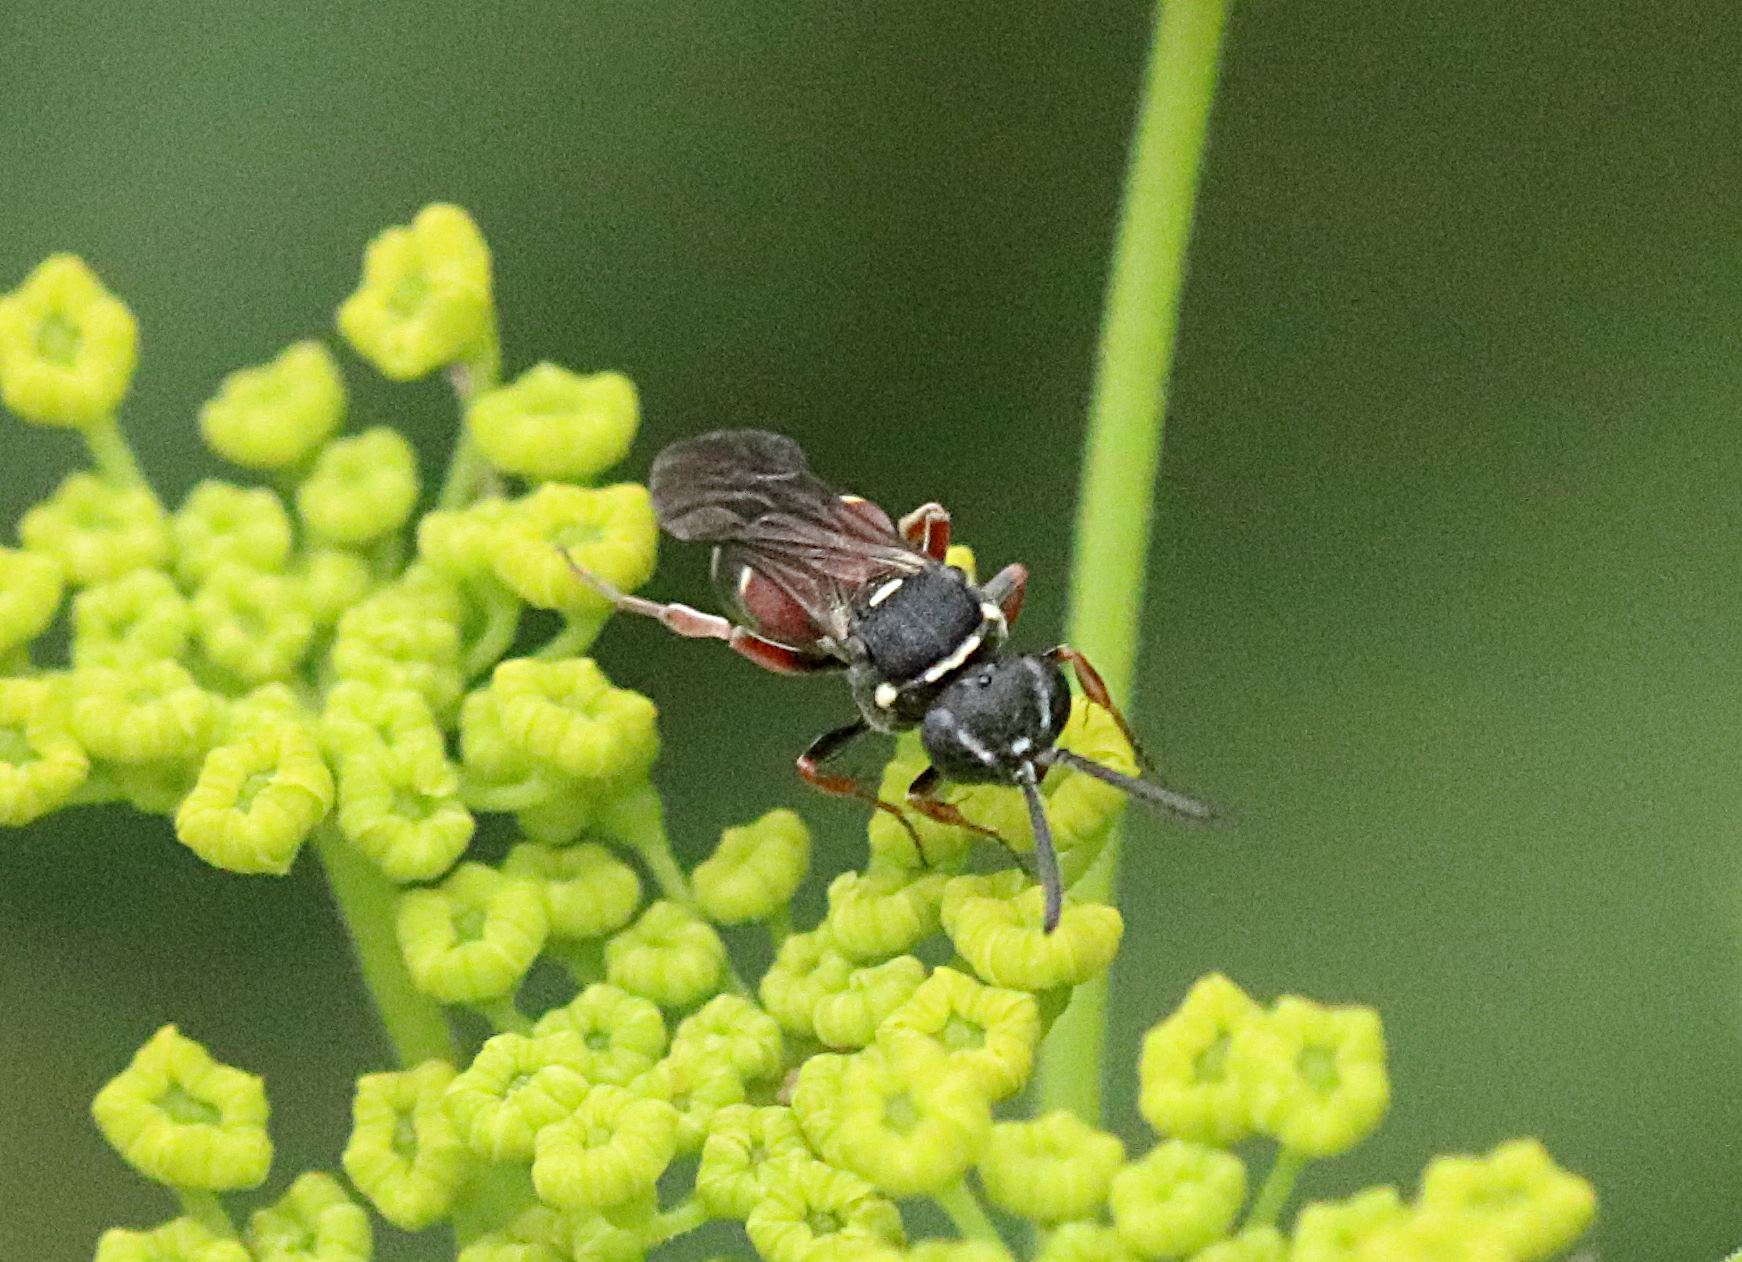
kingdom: Animalia
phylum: Arthropoda
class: Insecta
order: Hymenoptera
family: Crabronidae
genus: Nysson
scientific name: Nysson maculosus
